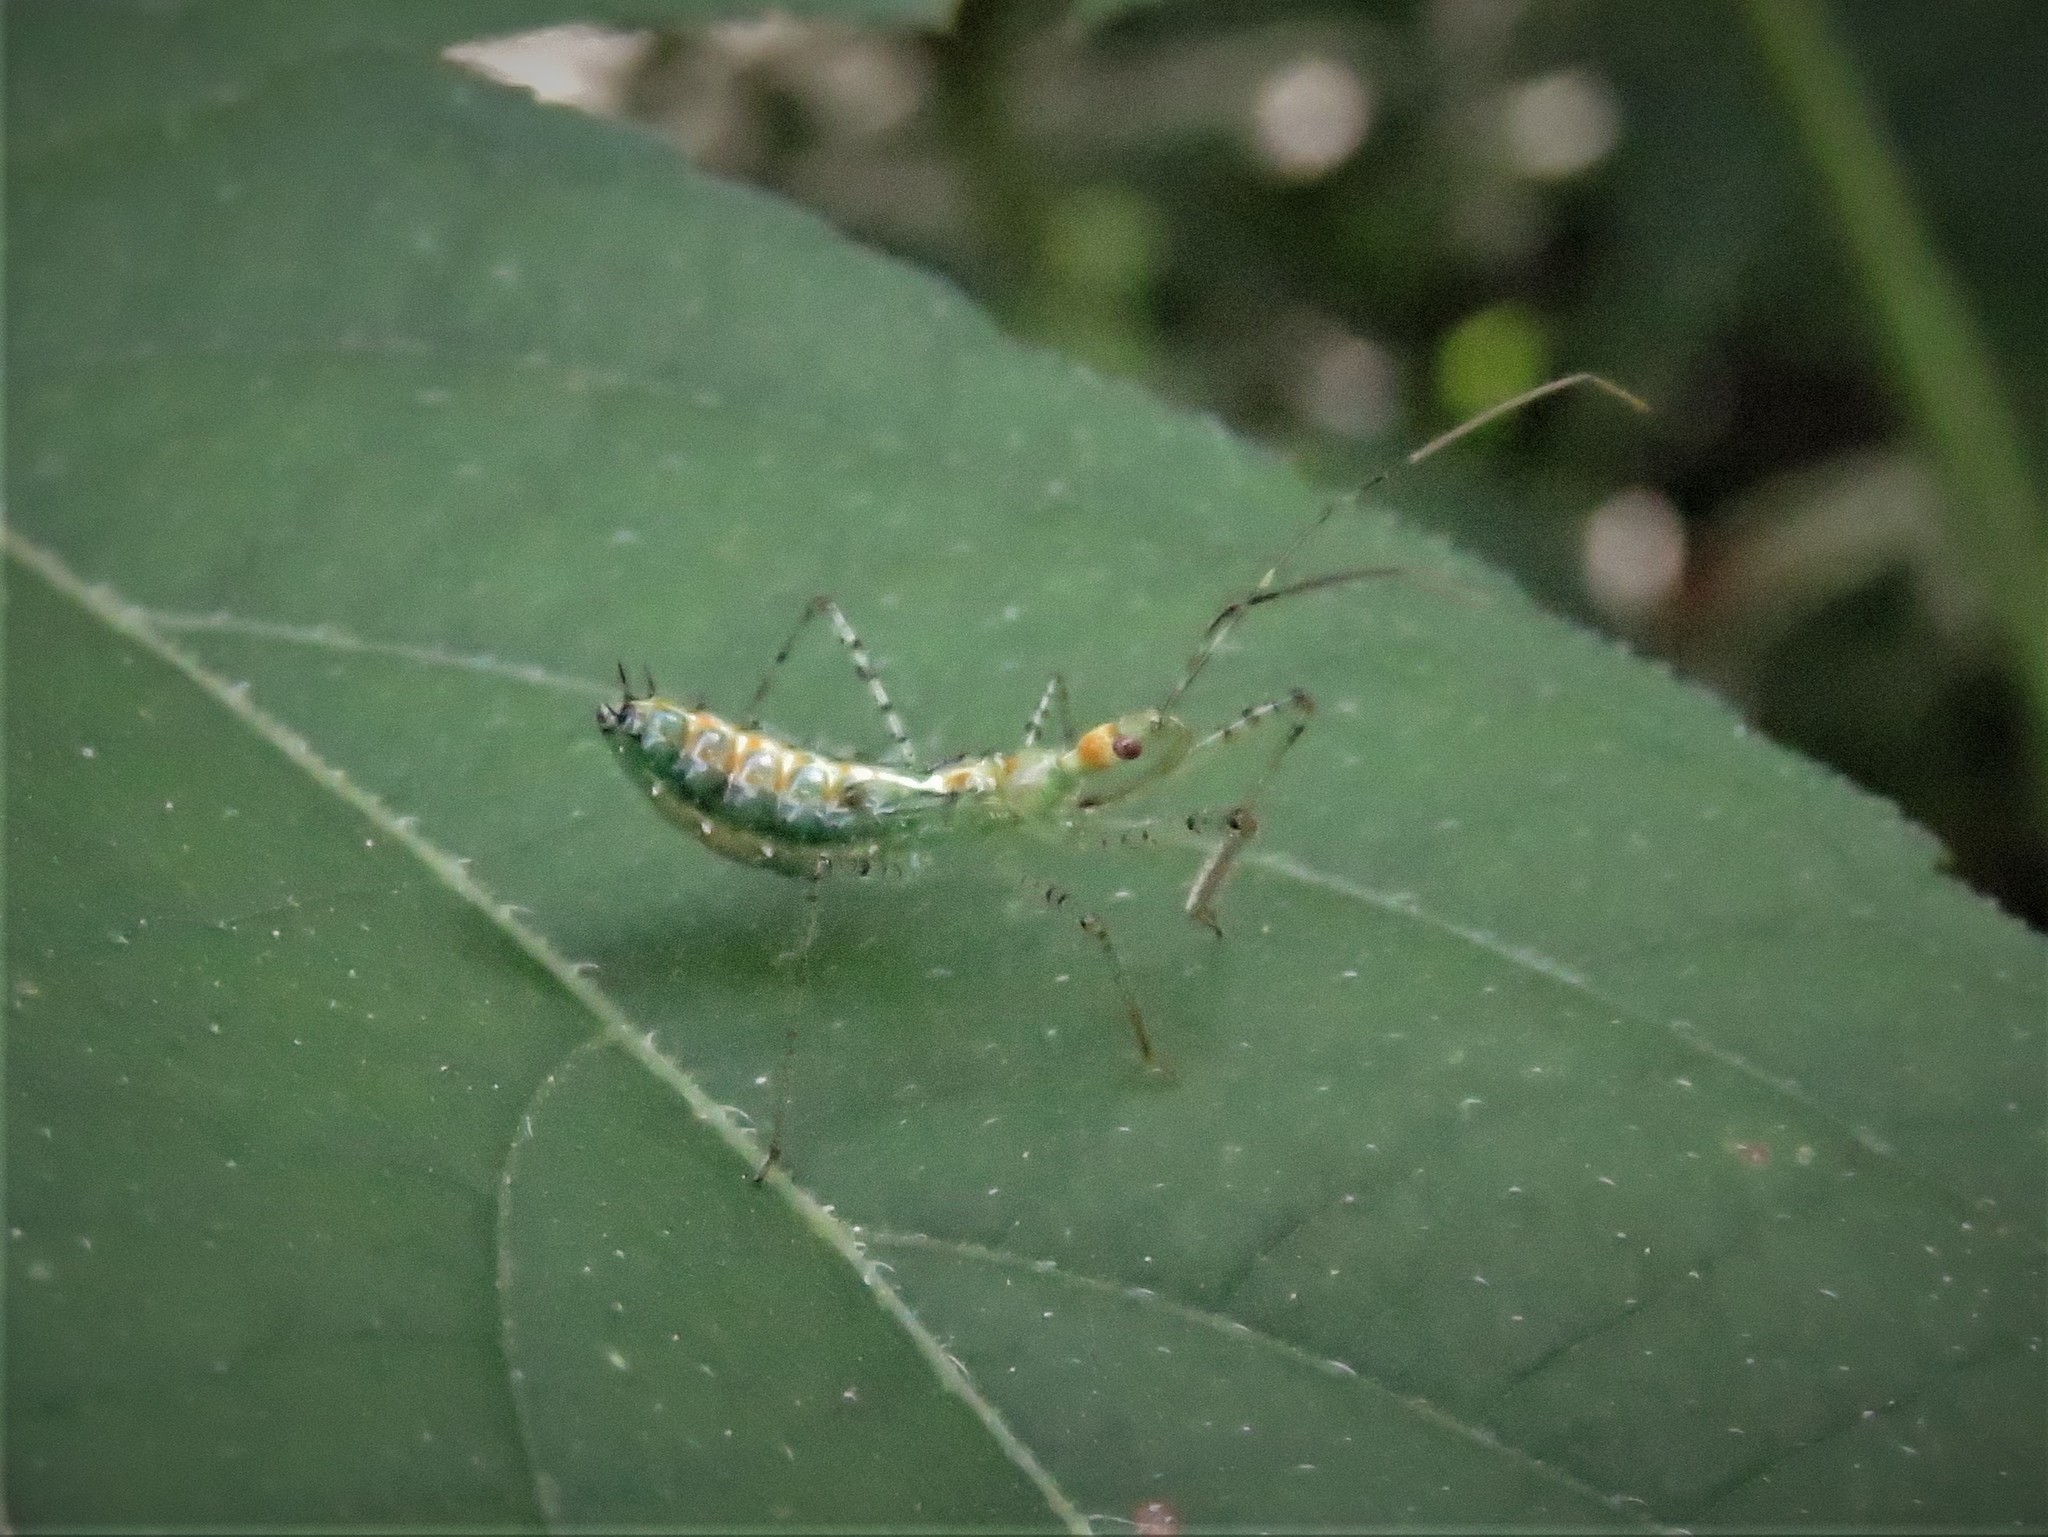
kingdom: Animalia
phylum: Arthropoda
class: Insecta
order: Hemiptera
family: Reduviidae
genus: Zelus
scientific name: Zelus renardii
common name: Assassin bug
